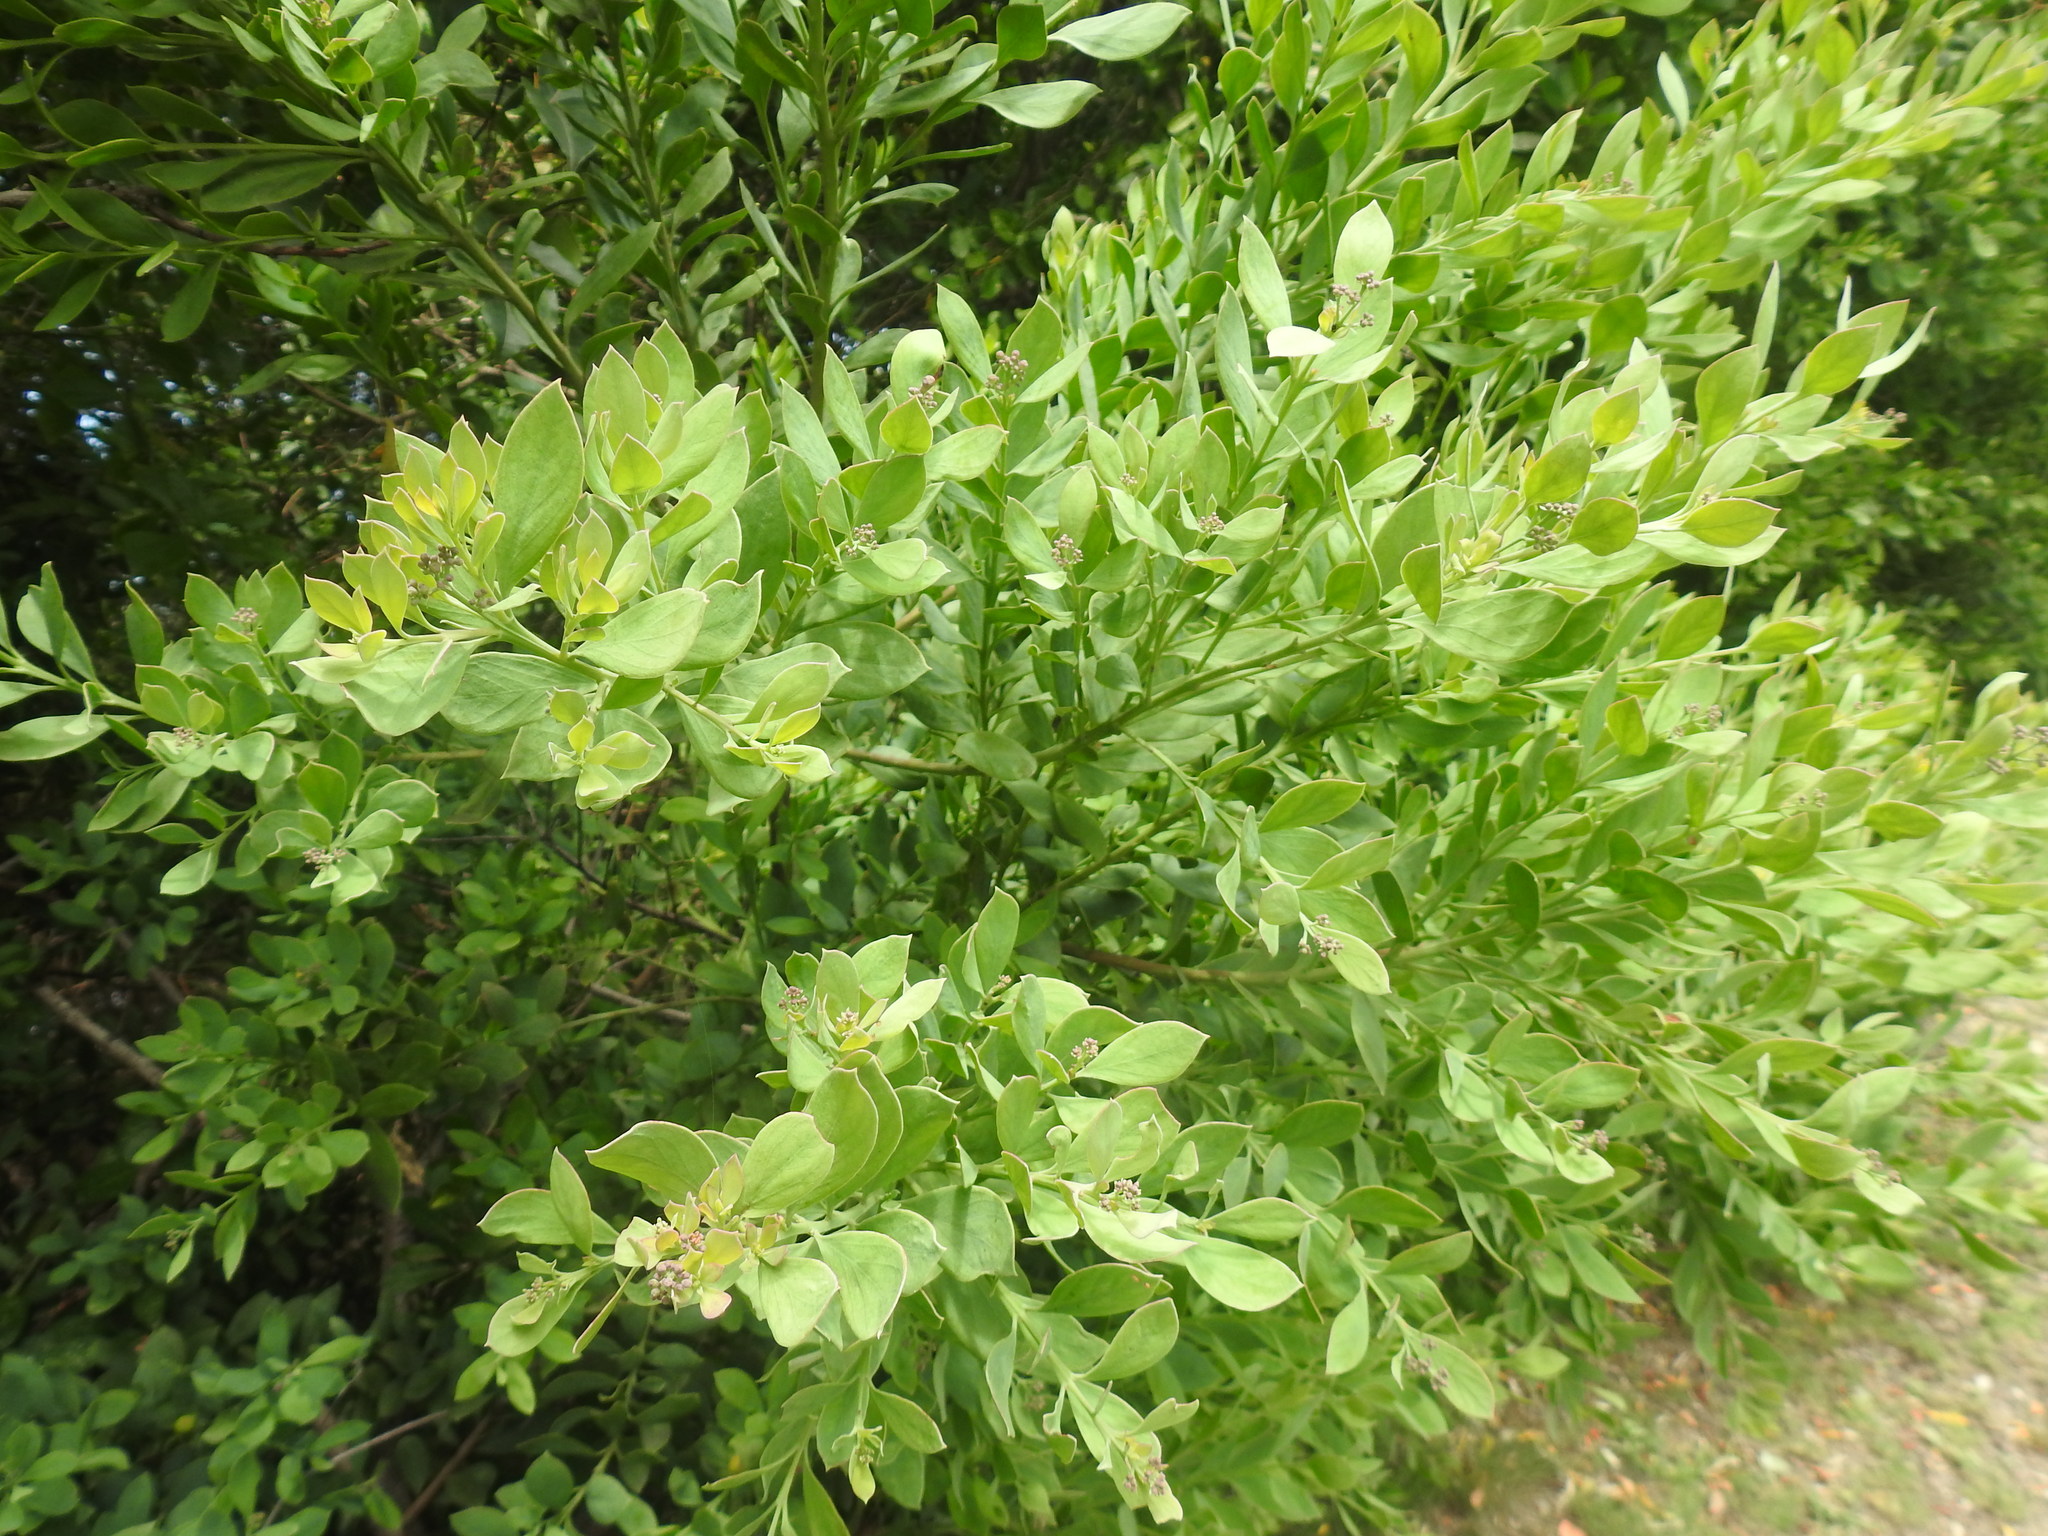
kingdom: Plantae
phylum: Tracheophyta
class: Magnoliopsida
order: Santalales
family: Santalaceae
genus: Osyris
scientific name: Osyris compressa
